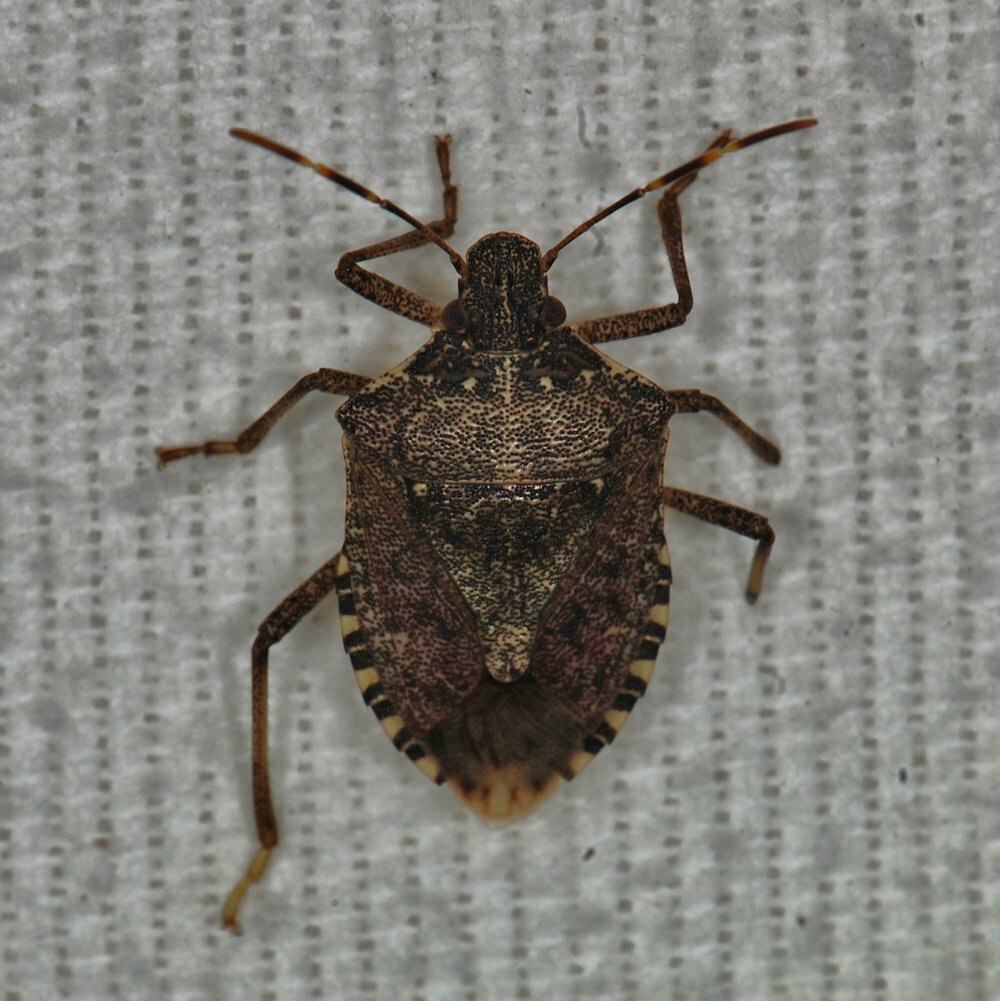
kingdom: Animalia
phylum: Arthropoda
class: Insecta
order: Hemiptera
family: Pentatomidae
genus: Halyomorpha
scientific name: Halyomorpha halys
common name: Brown marmorated stink bug
